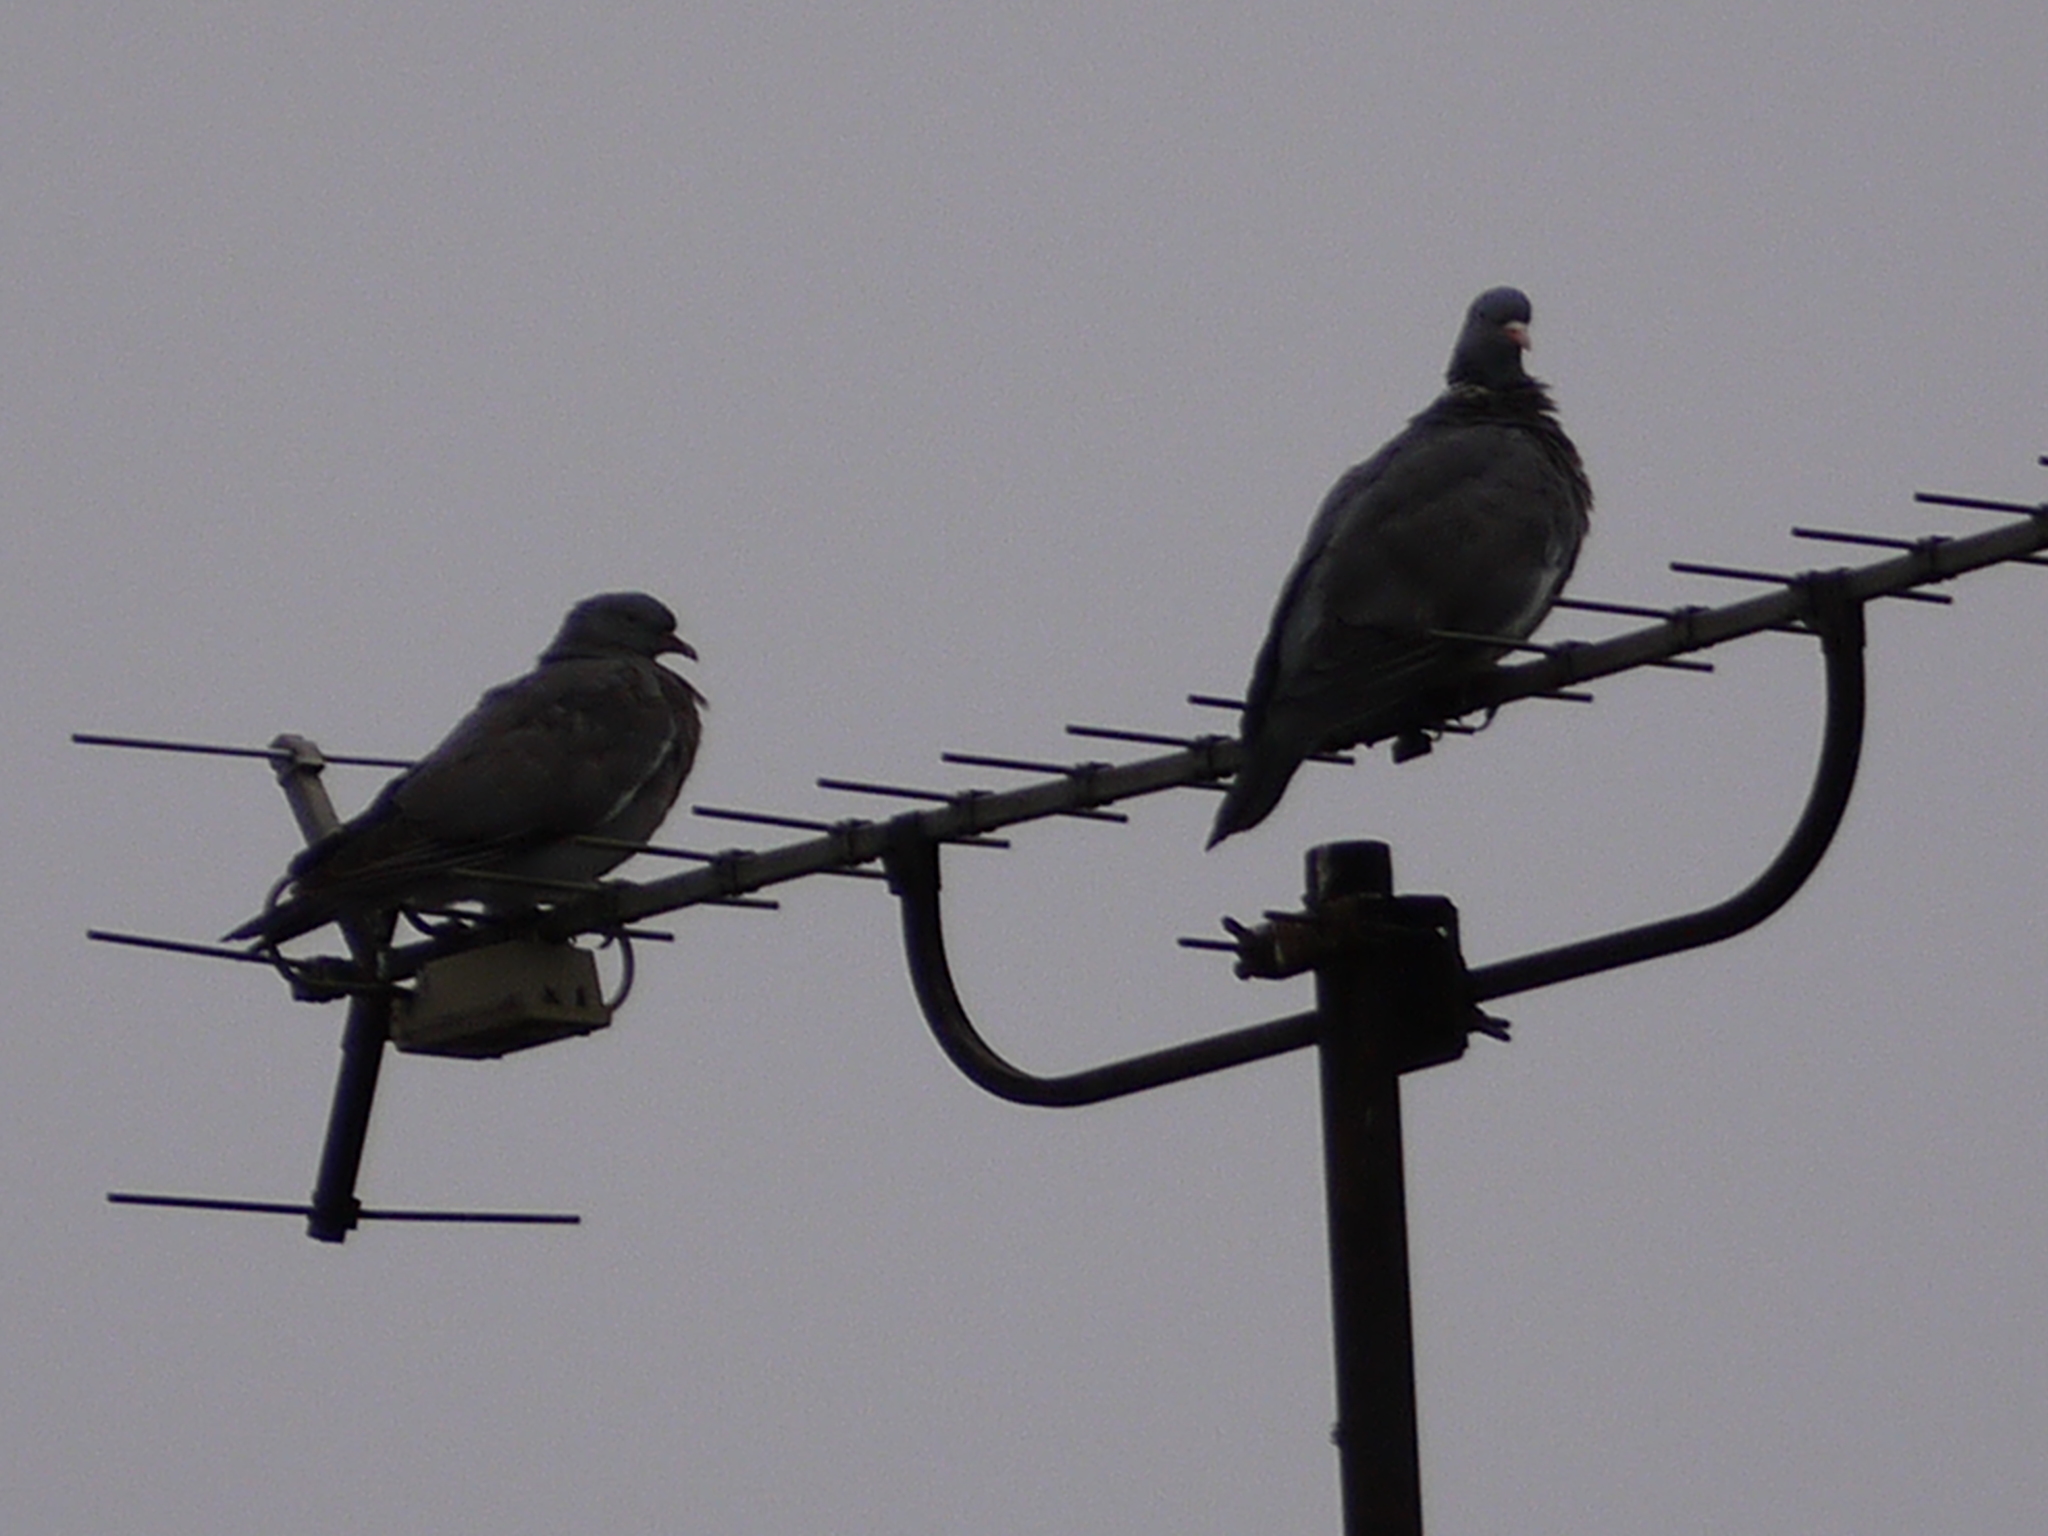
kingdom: Animalia
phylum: Chordata
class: Aves
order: Columbiformes
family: Columbidae
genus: Columba
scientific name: Columba palumbus
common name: Common wood pigeon
